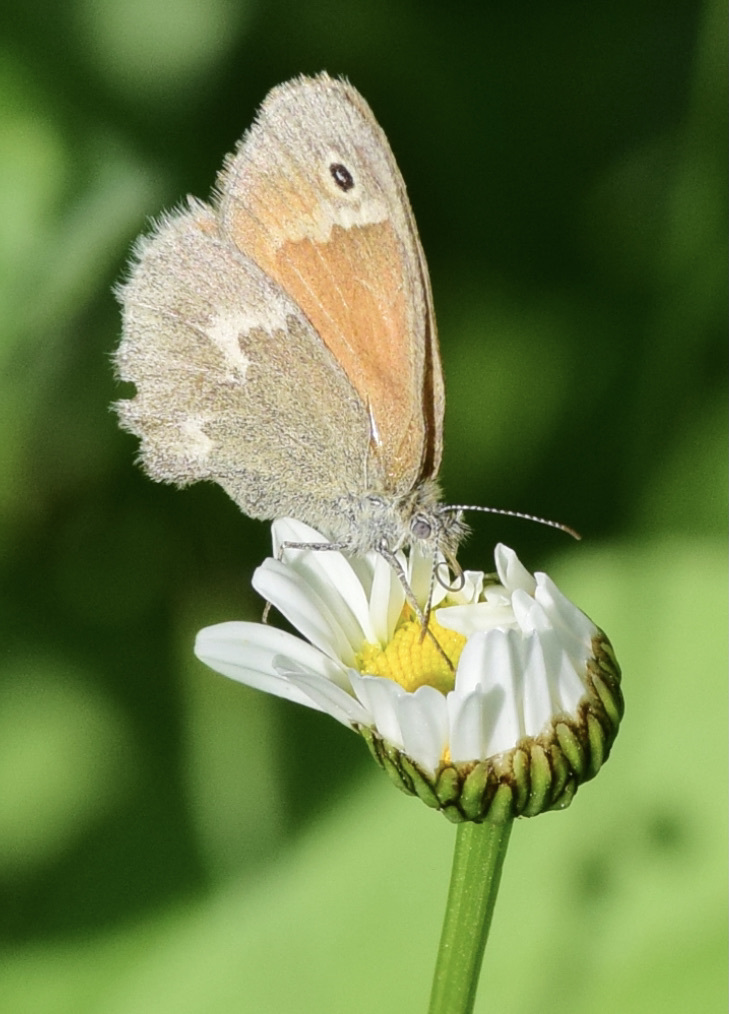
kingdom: Animalia
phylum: Arthropoda
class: Insecta
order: Lepidoptera
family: Nymphalidae
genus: Coenonympha
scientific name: Coenonympha california
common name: Common ringlet
